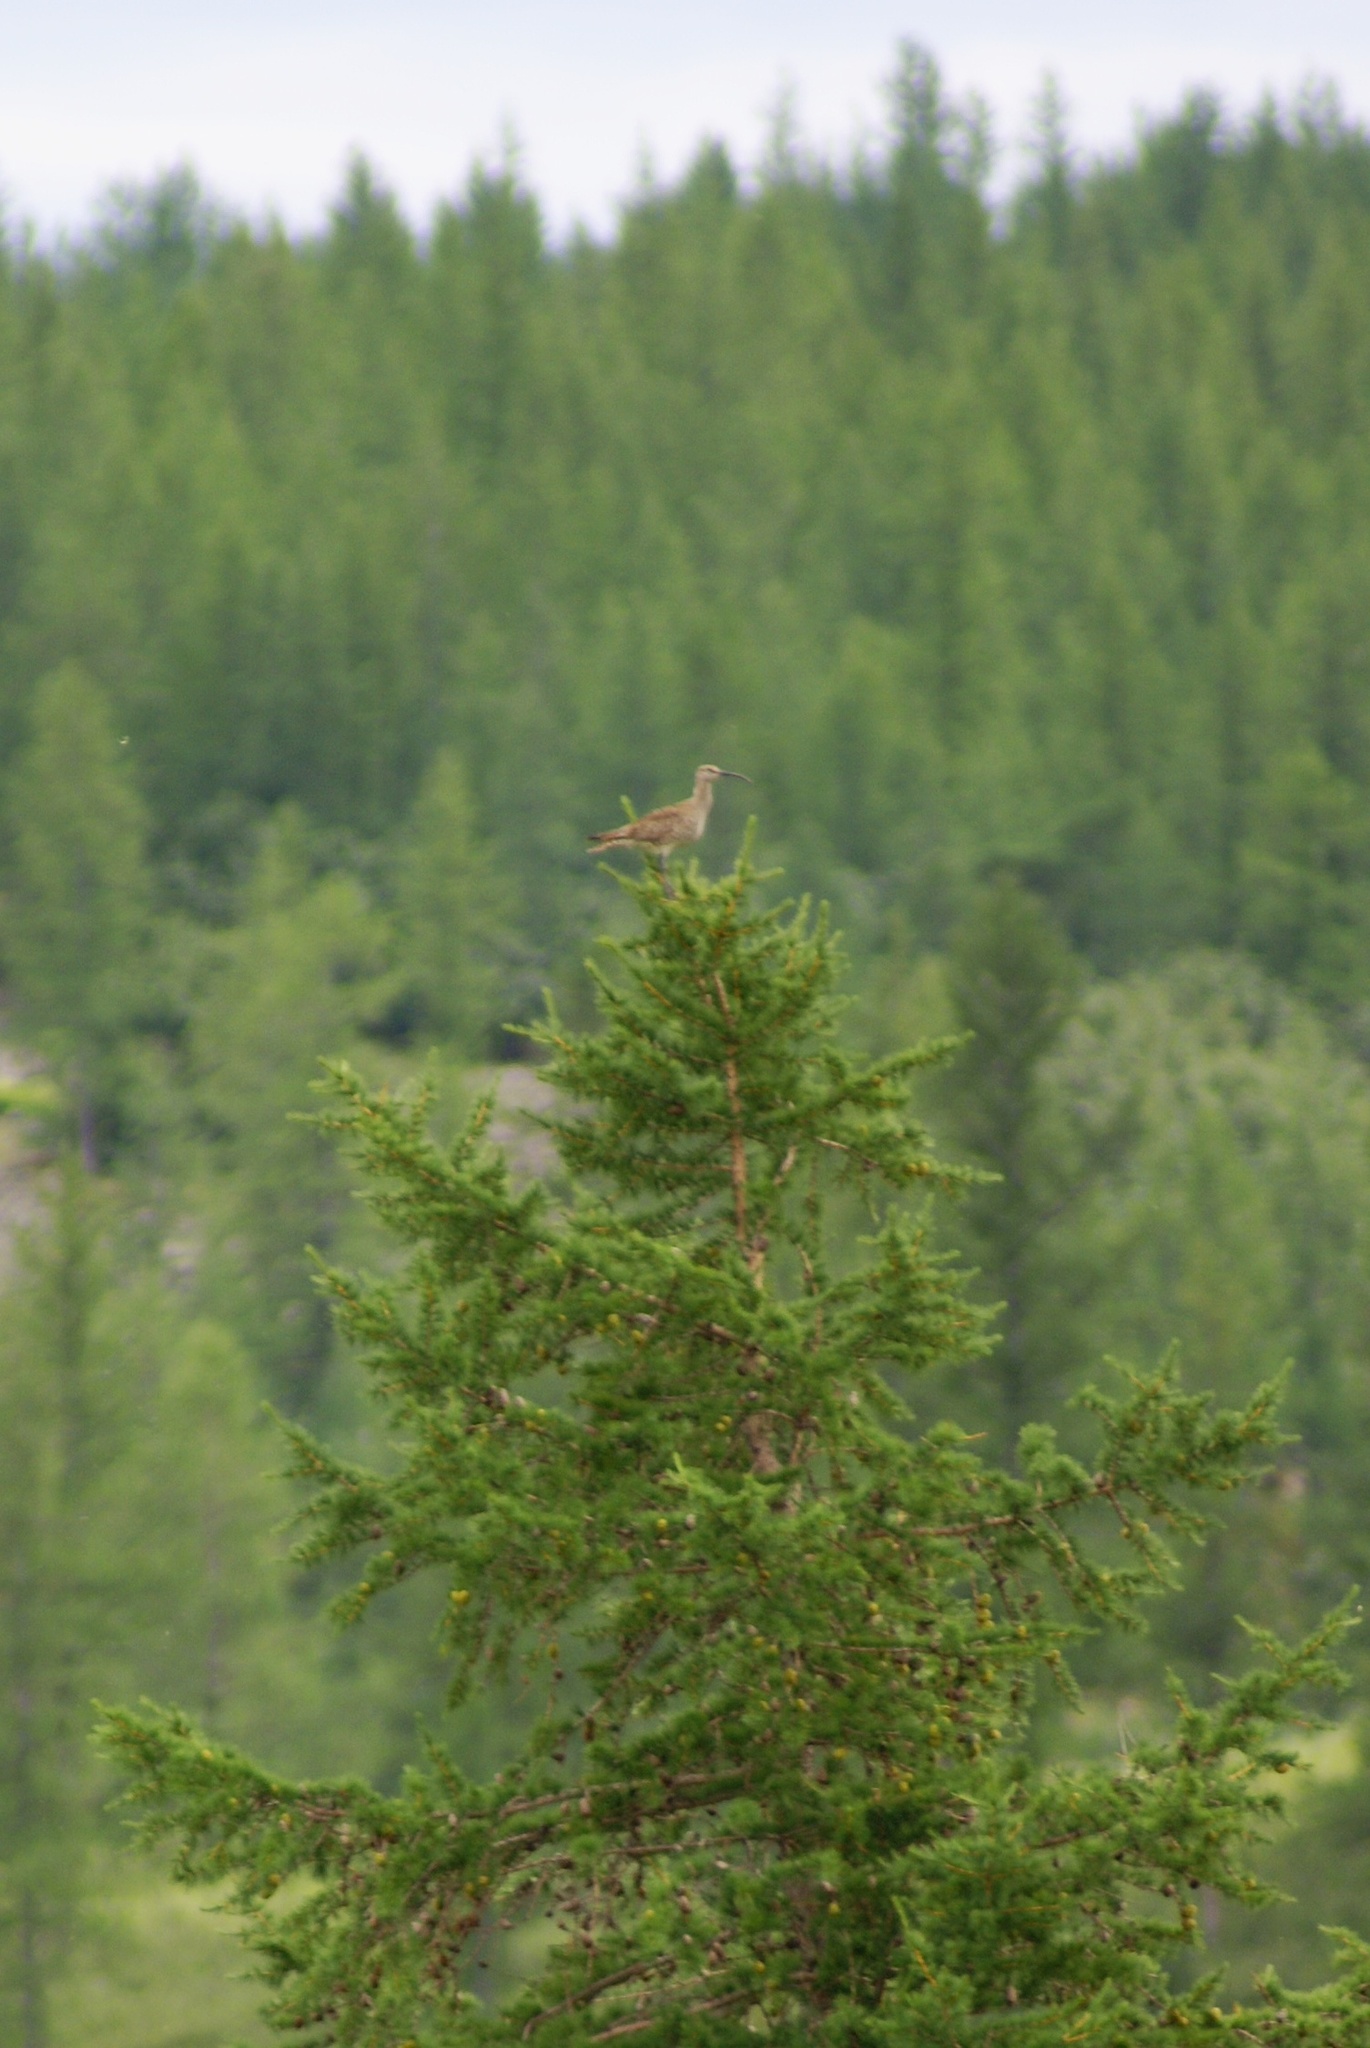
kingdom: Animalia
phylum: Chordata
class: Aves
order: Charadriiformes
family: Scolopacidae
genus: Numenius
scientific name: Numenius phaeopus
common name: Whimbrel
